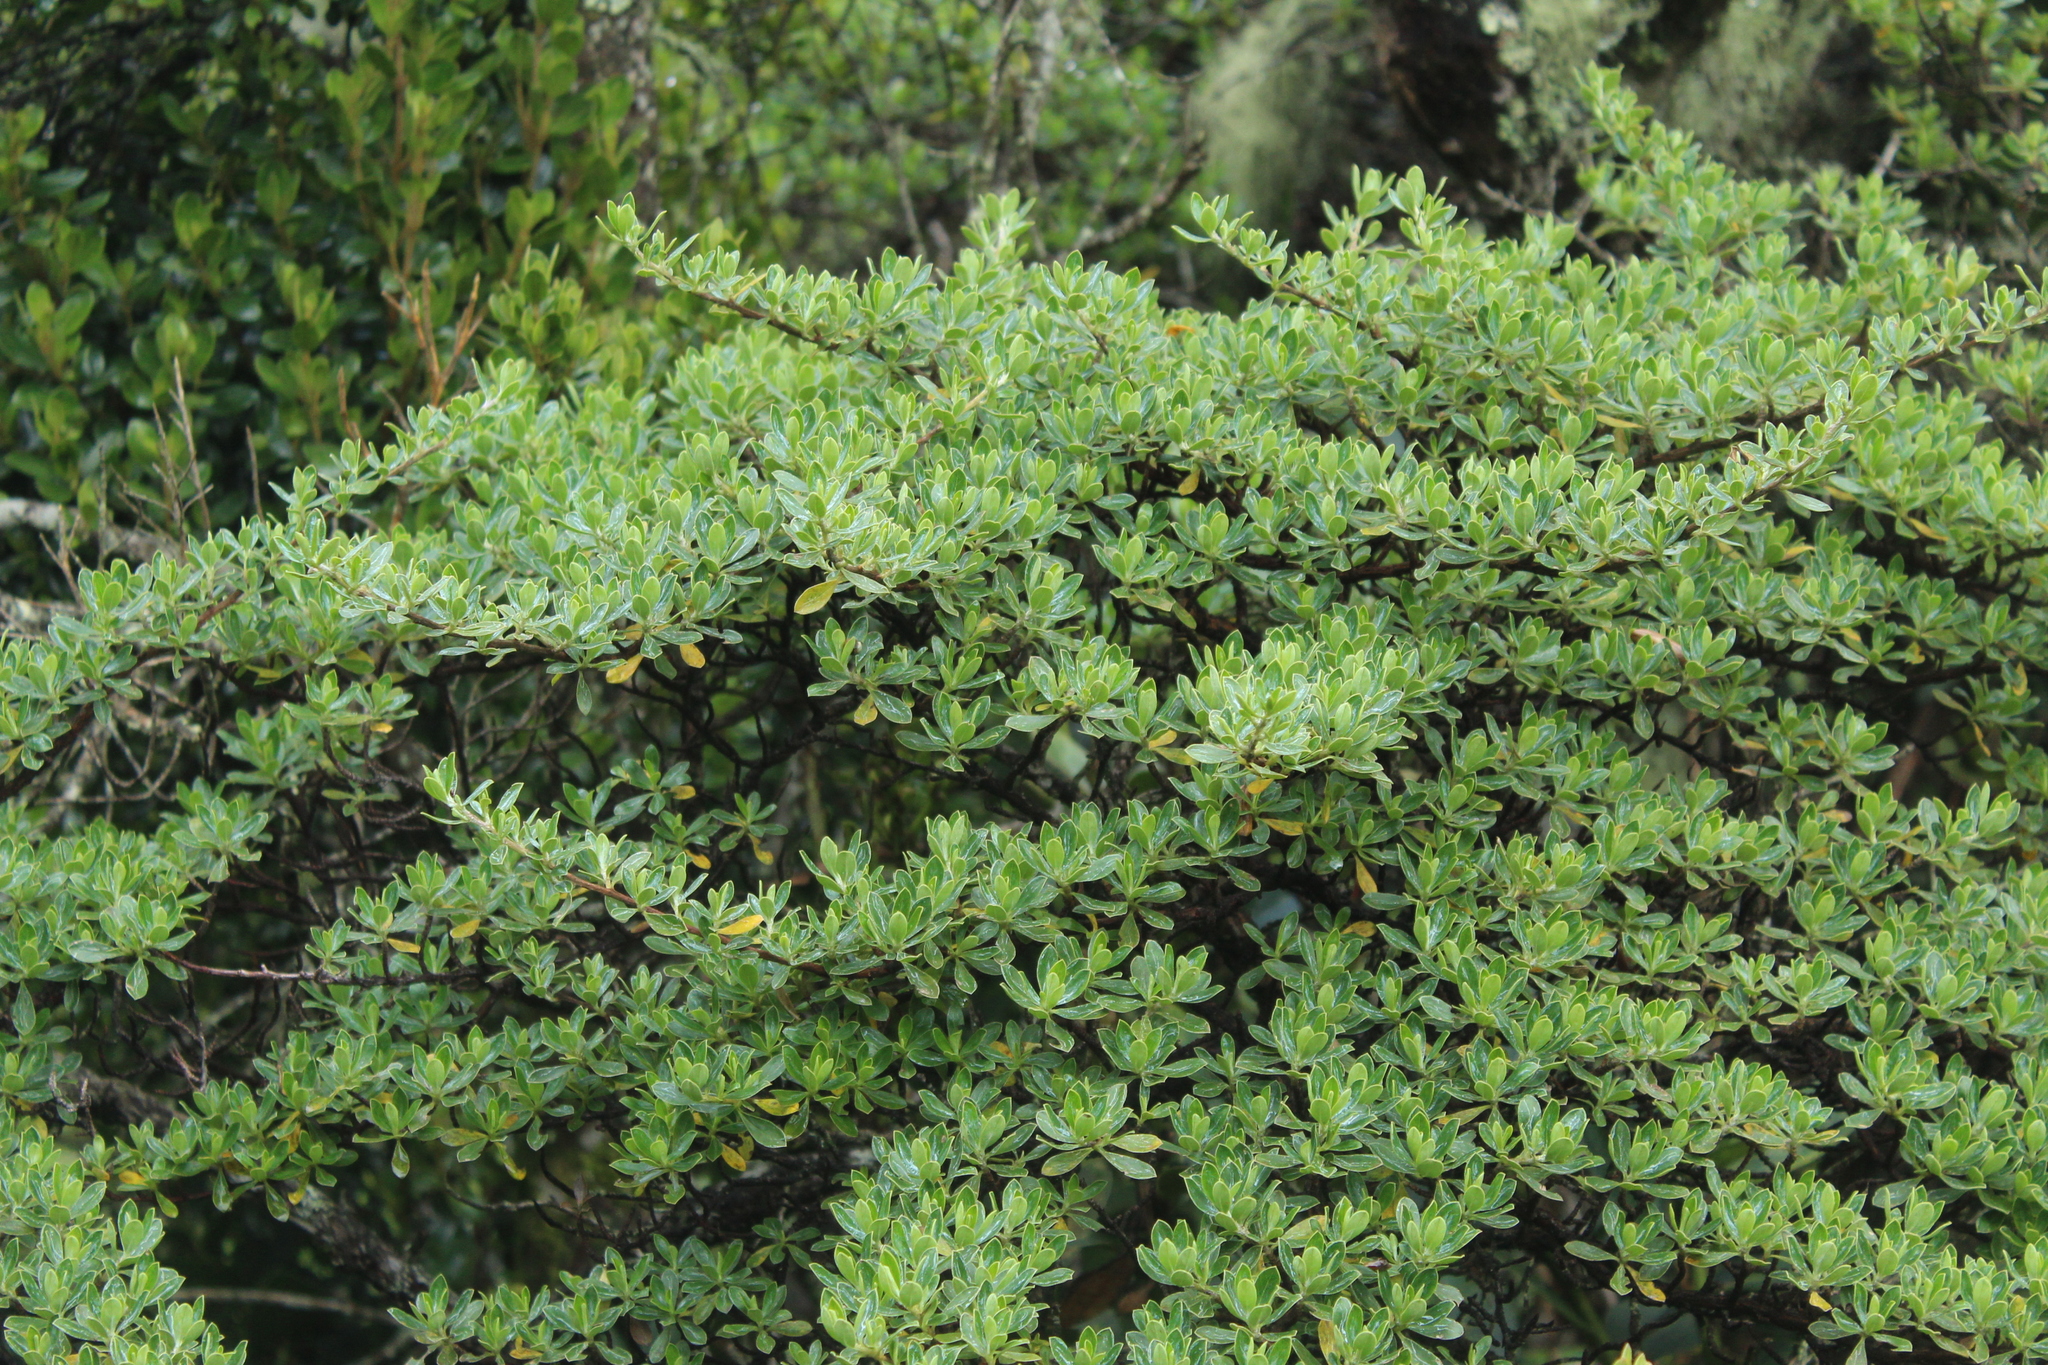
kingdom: Plantae
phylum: Tracheophyta
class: Magnoliopsida
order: Escalloniales
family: Escalloniaceae
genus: Escallonia
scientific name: Escallonia myrtilloides
